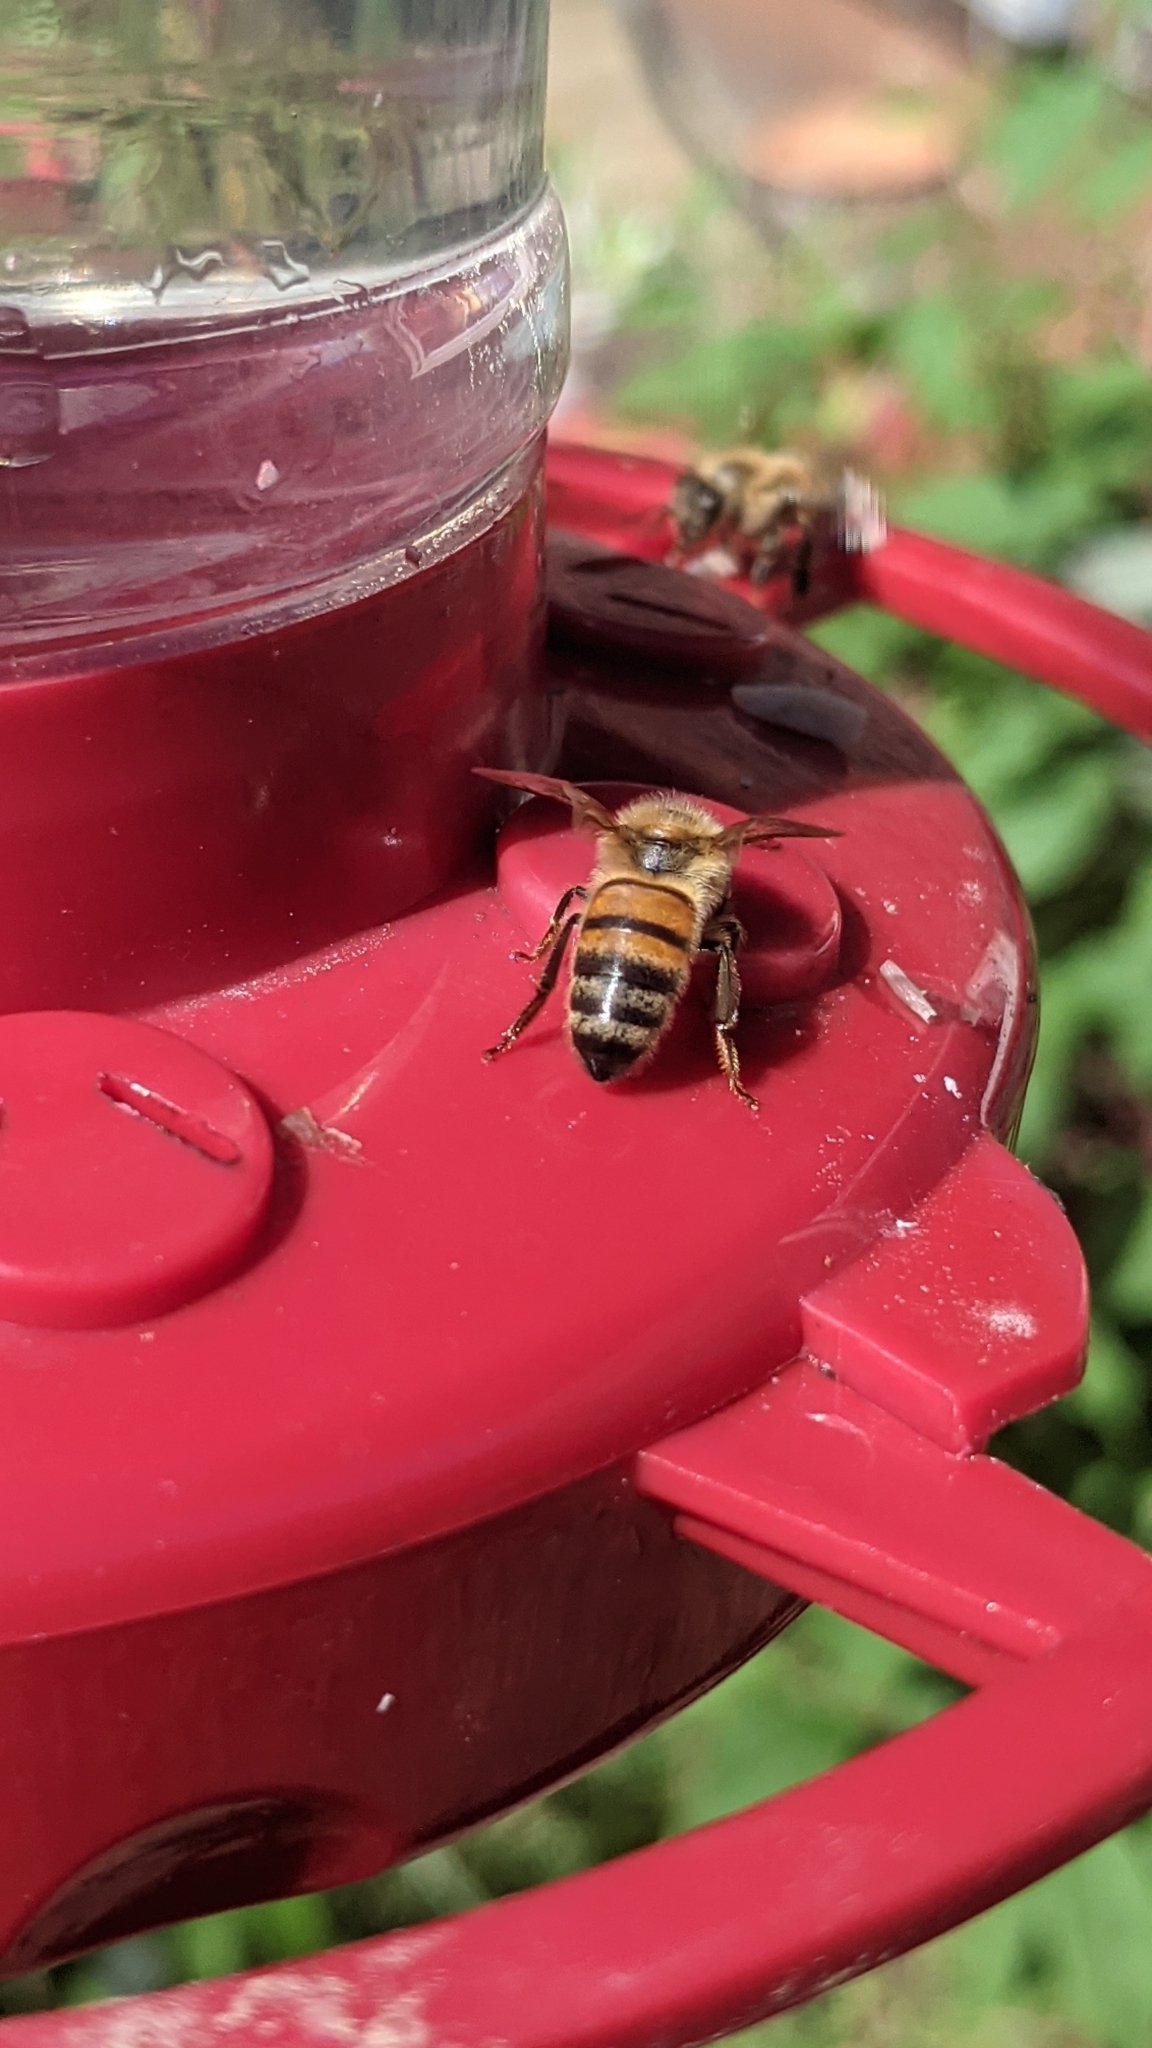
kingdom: Animalia
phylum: Arthropoda
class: Insecta
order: Hymenoptera
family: Apidae
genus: Apis
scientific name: Apis mellifera
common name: Honey bee
